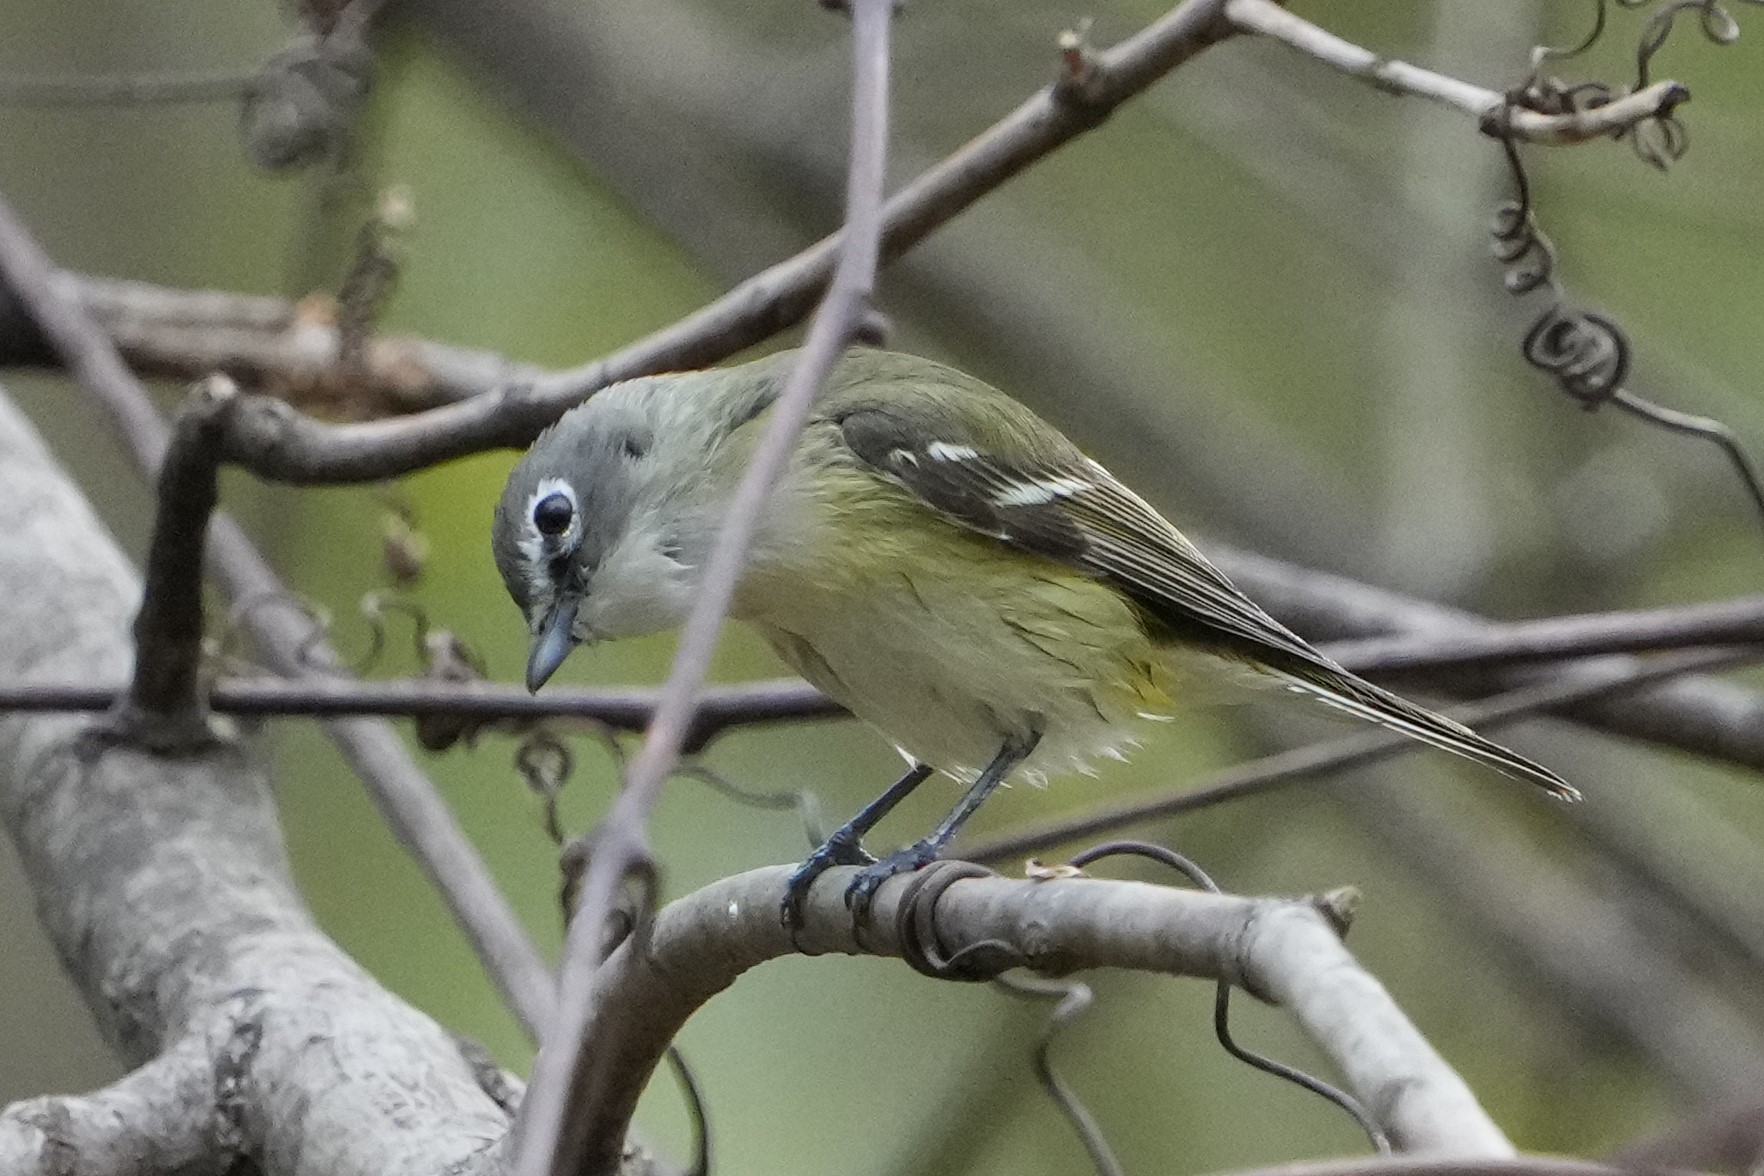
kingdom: Animalia
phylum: Chordata
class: Aves
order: Passeriformes
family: Vireonidae
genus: Vireo
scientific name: Vireo solitarius
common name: Blue-headed vireo
